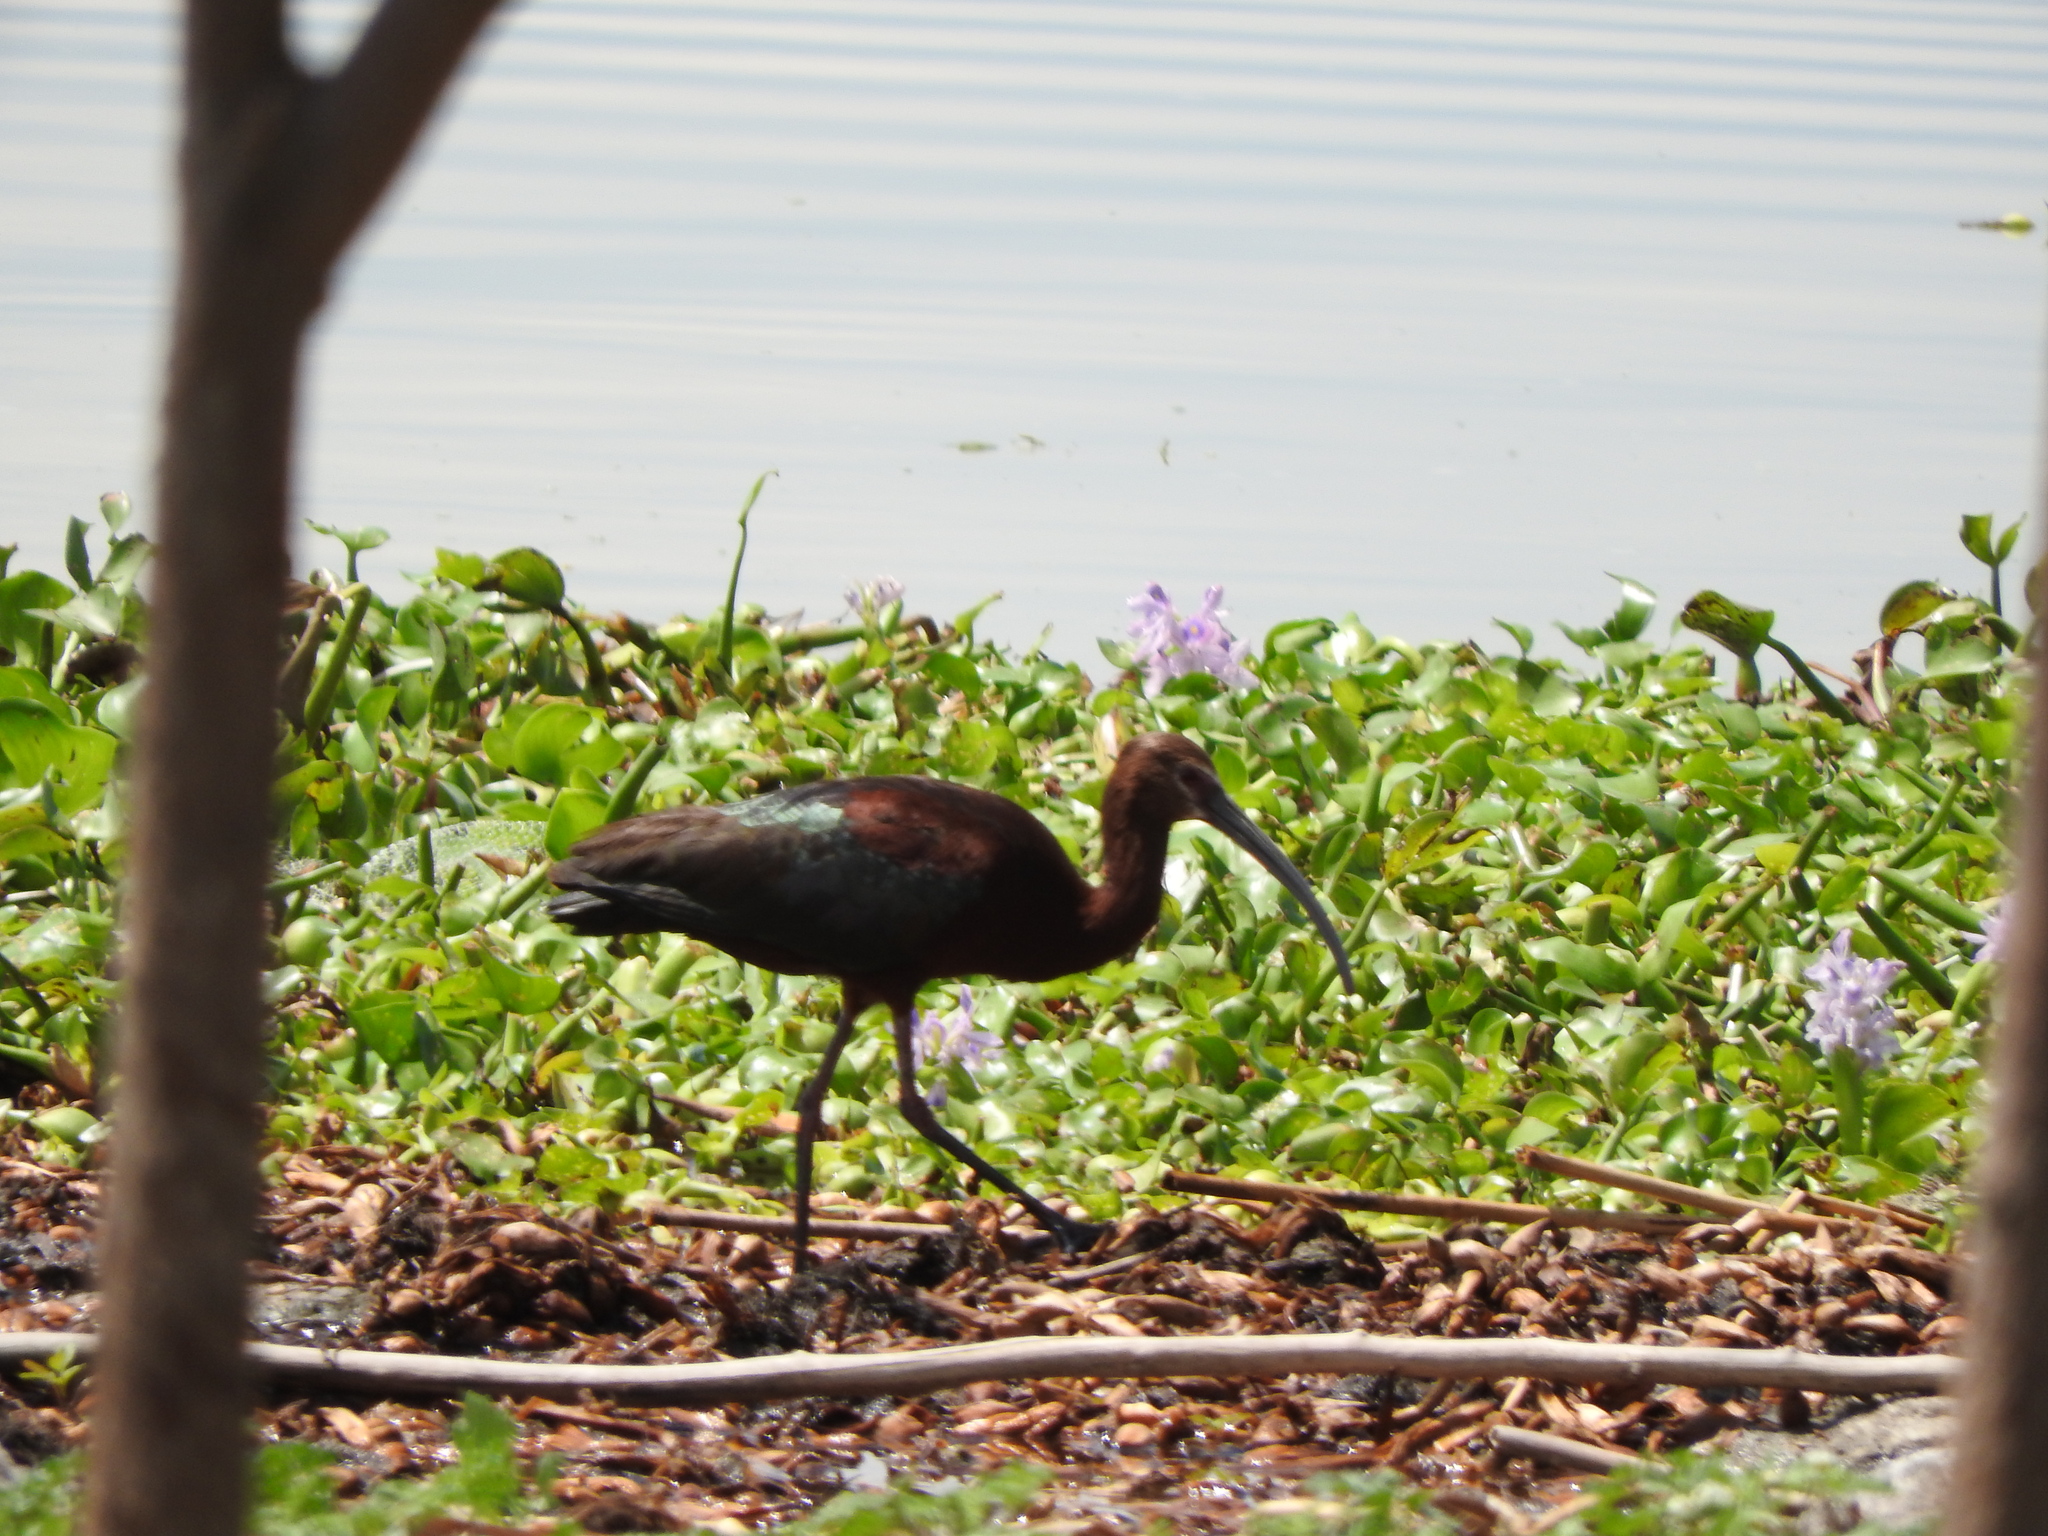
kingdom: Animalia
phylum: Chordata
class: Aves
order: Pelecaniformes
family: Threskiornithidae
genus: Plegadis
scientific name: Plegadis chihi
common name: White-faced ibis
